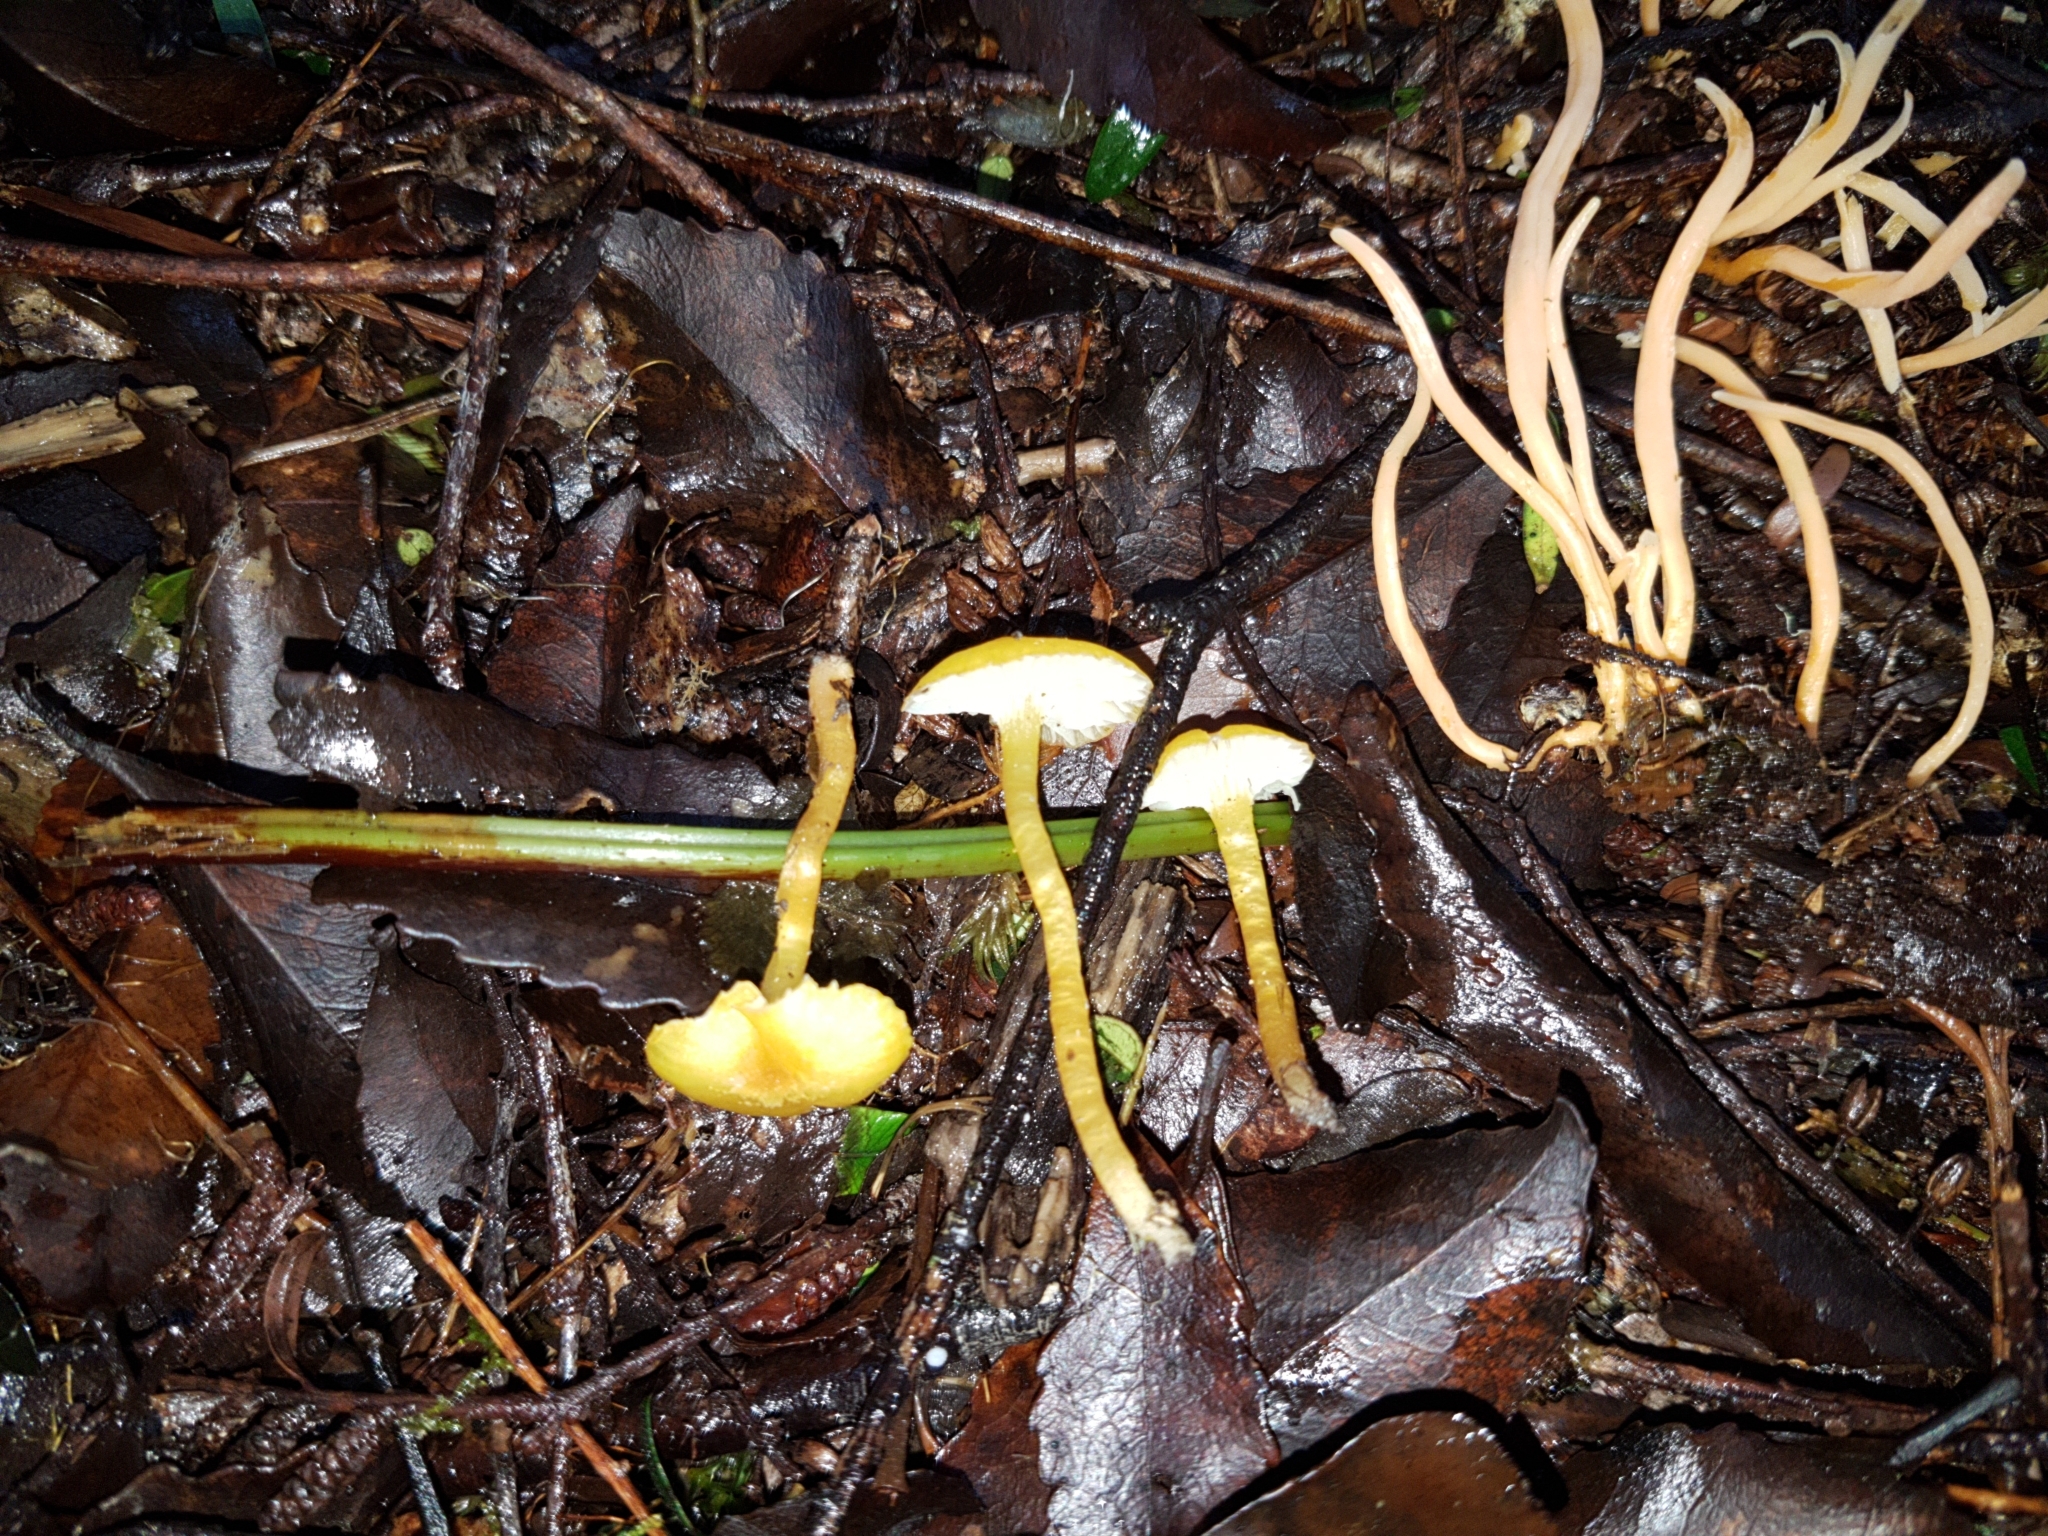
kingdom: Fungi
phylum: Basidiomycota
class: Agaricomycetes
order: Agaricales
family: Hygrophoraceae
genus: Hygrocybe
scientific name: Hygrocybe
